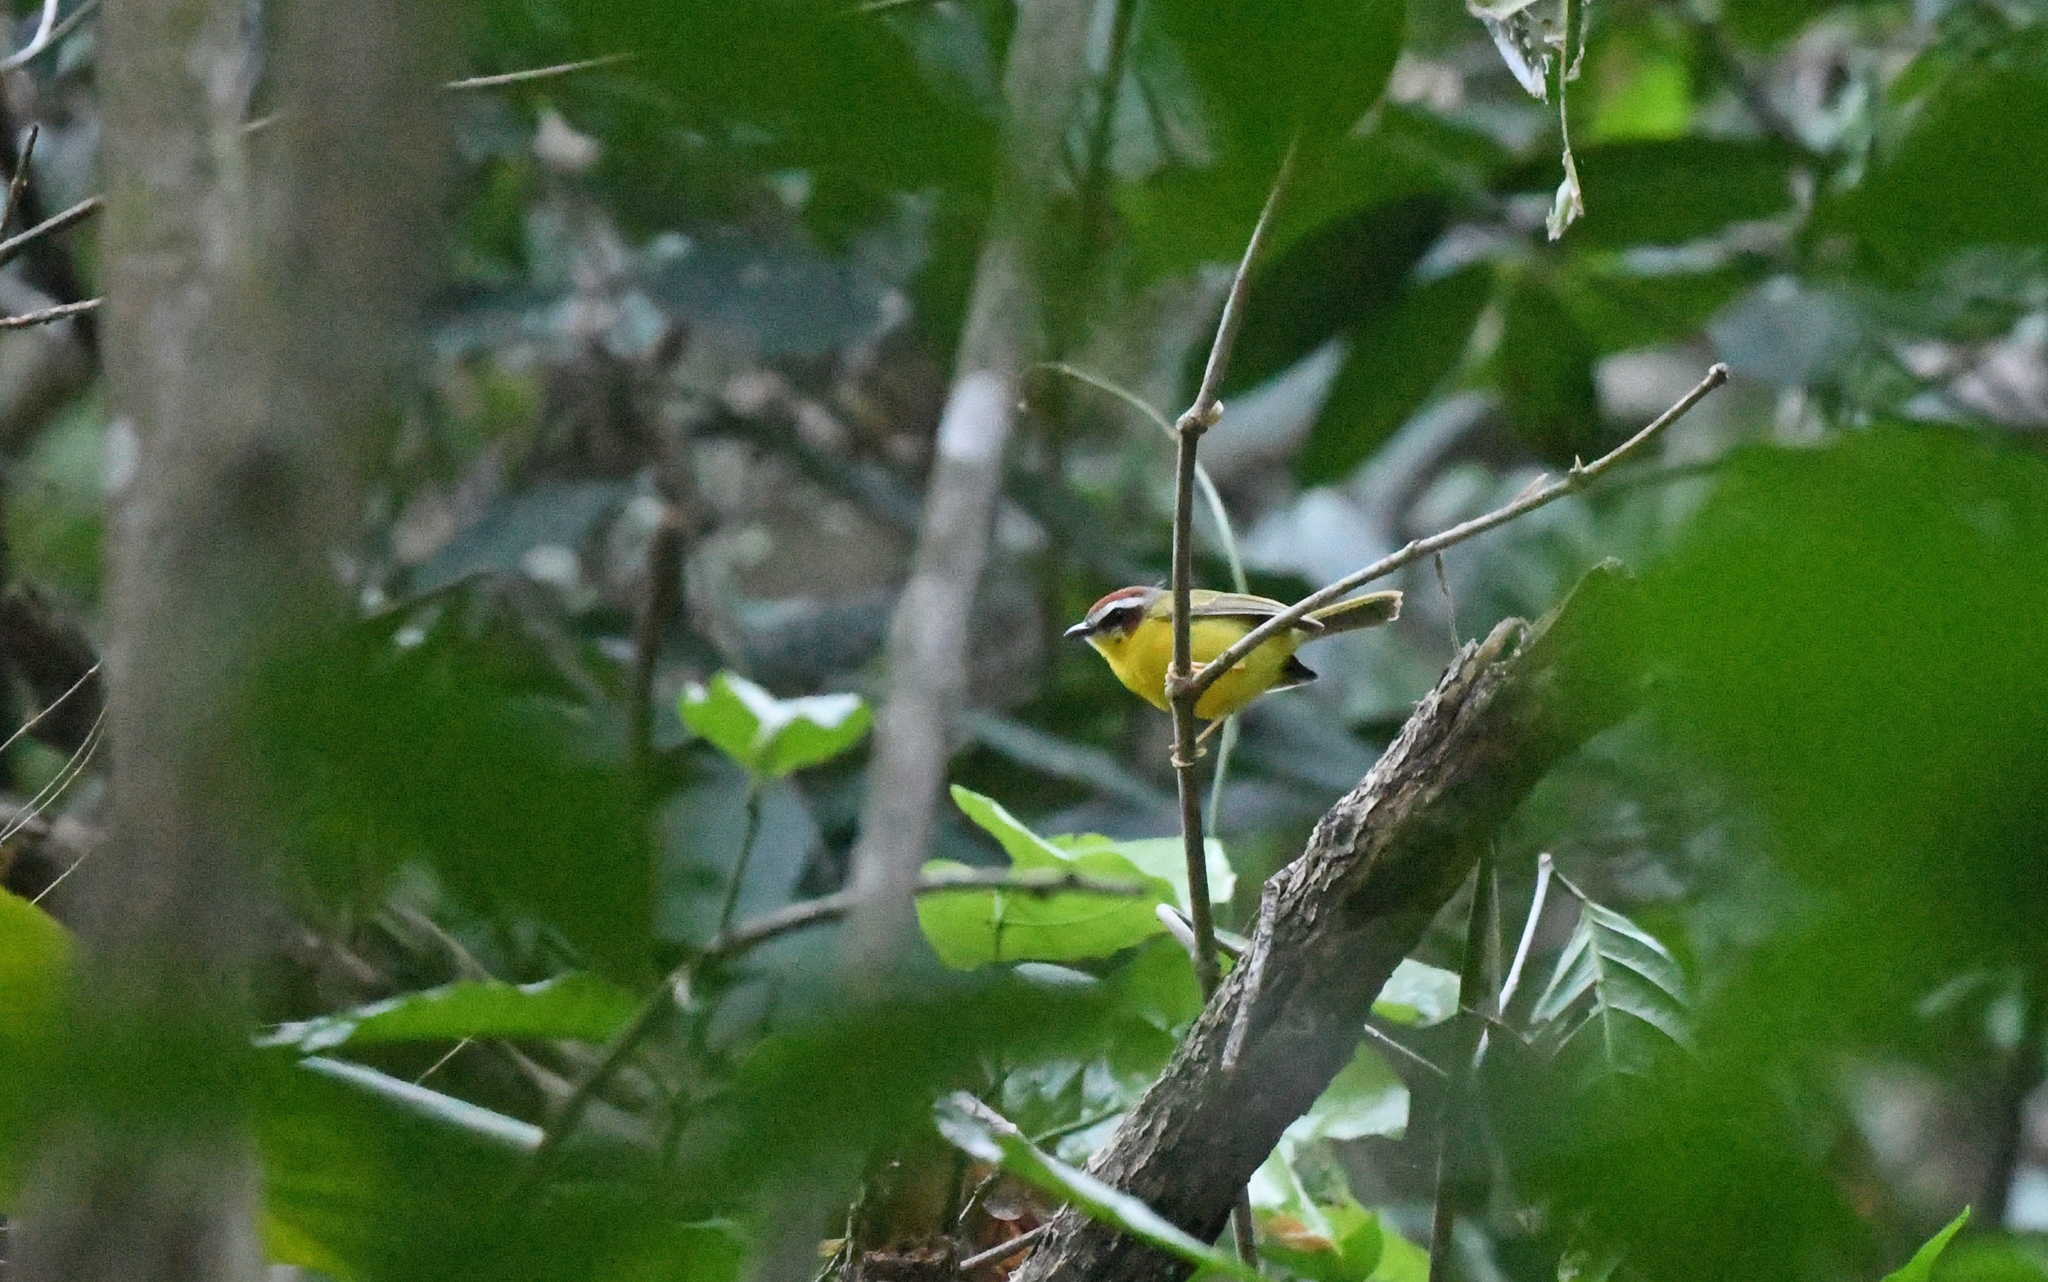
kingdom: Animalia
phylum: Chordata
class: Aves
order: Passeriformes
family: Parulidae
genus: Basileuterus
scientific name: Basileuterus rufifrons
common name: Rufous-capped warbler
